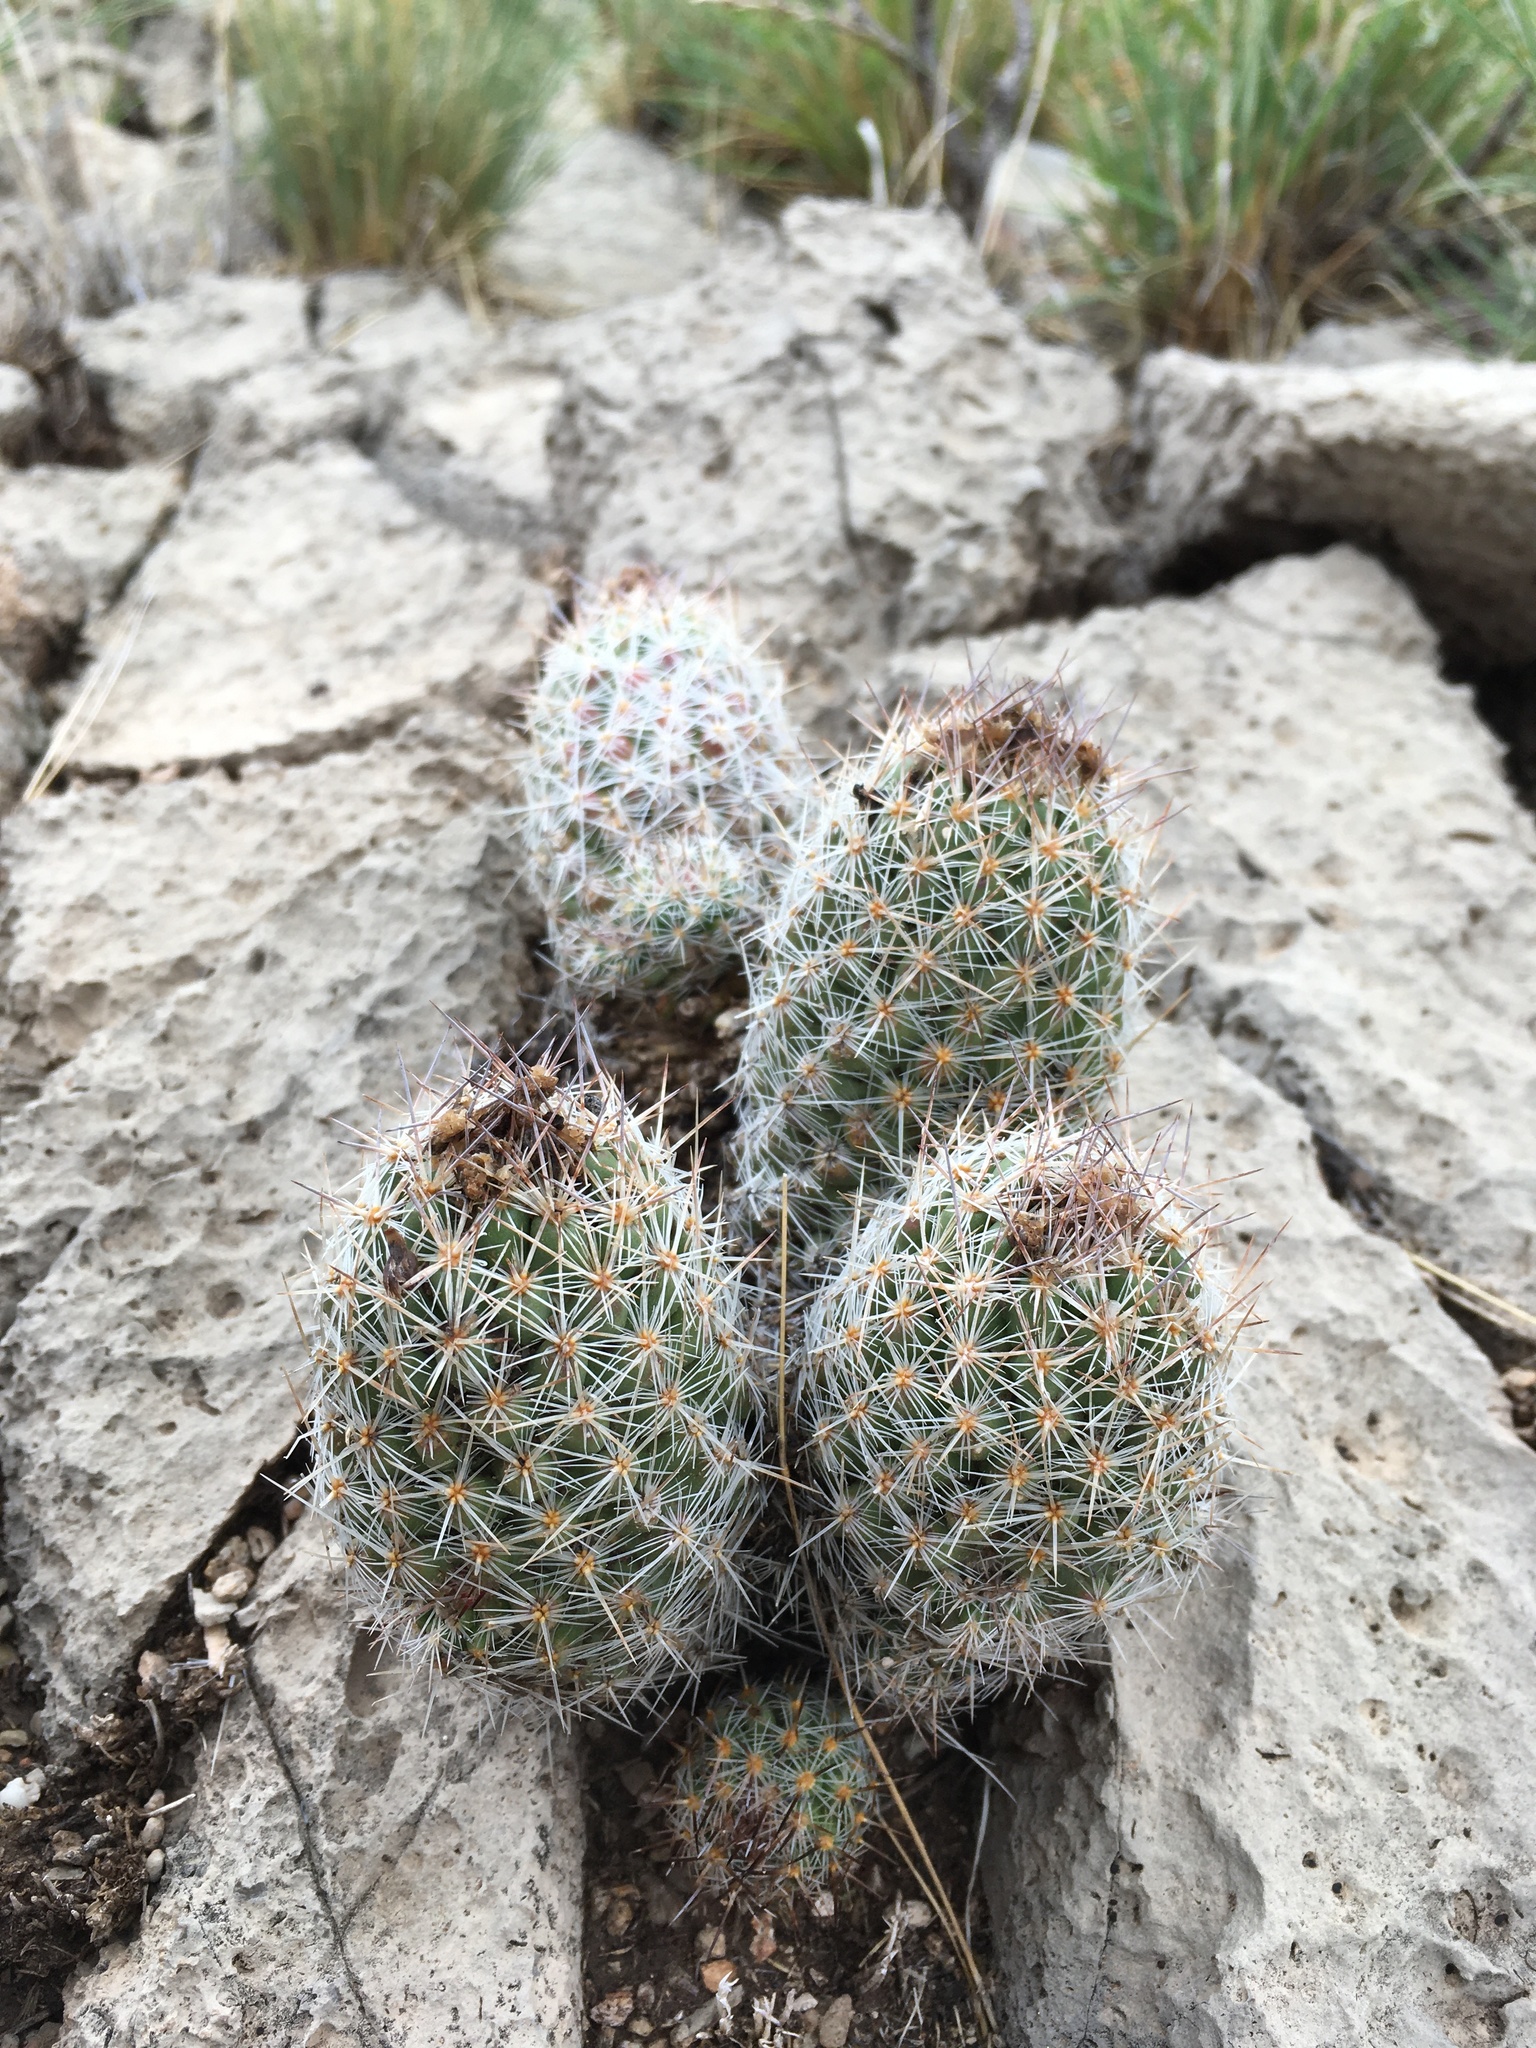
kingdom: Plantae
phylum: Tracheophyta
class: Magnoliopsida
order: Caryophyllales
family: Cactaceae
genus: Pelecyphora
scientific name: Pelecyphora tuberculosa
